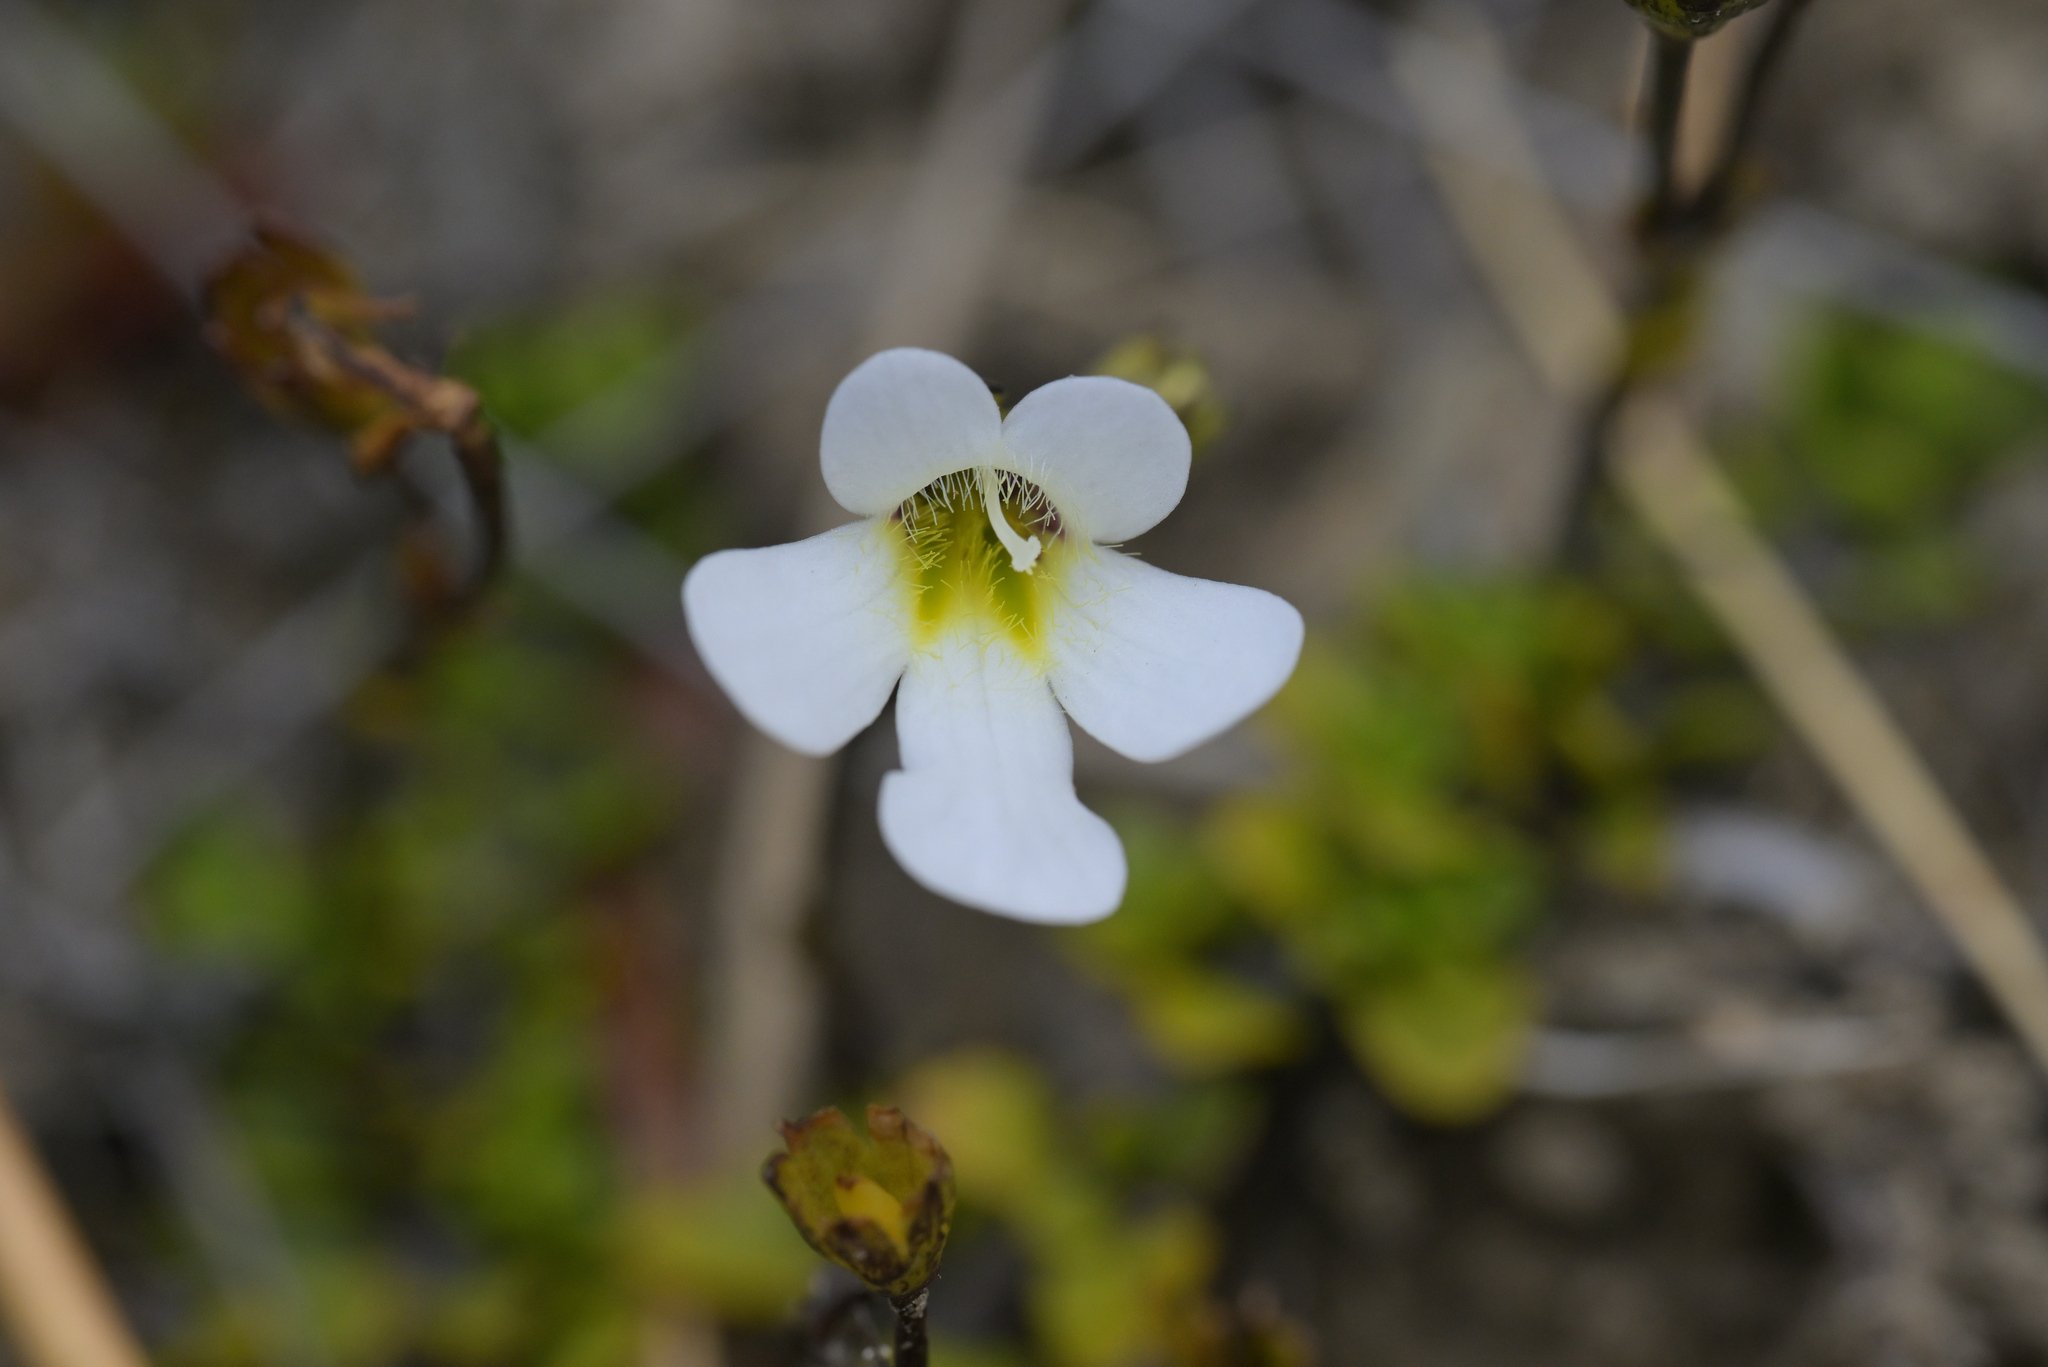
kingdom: Plantae
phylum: Tracheophyta
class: Magnoliopsida
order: Lamiales
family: Plantaginaceae
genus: Ourisia
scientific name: Ourisia caespitosa
